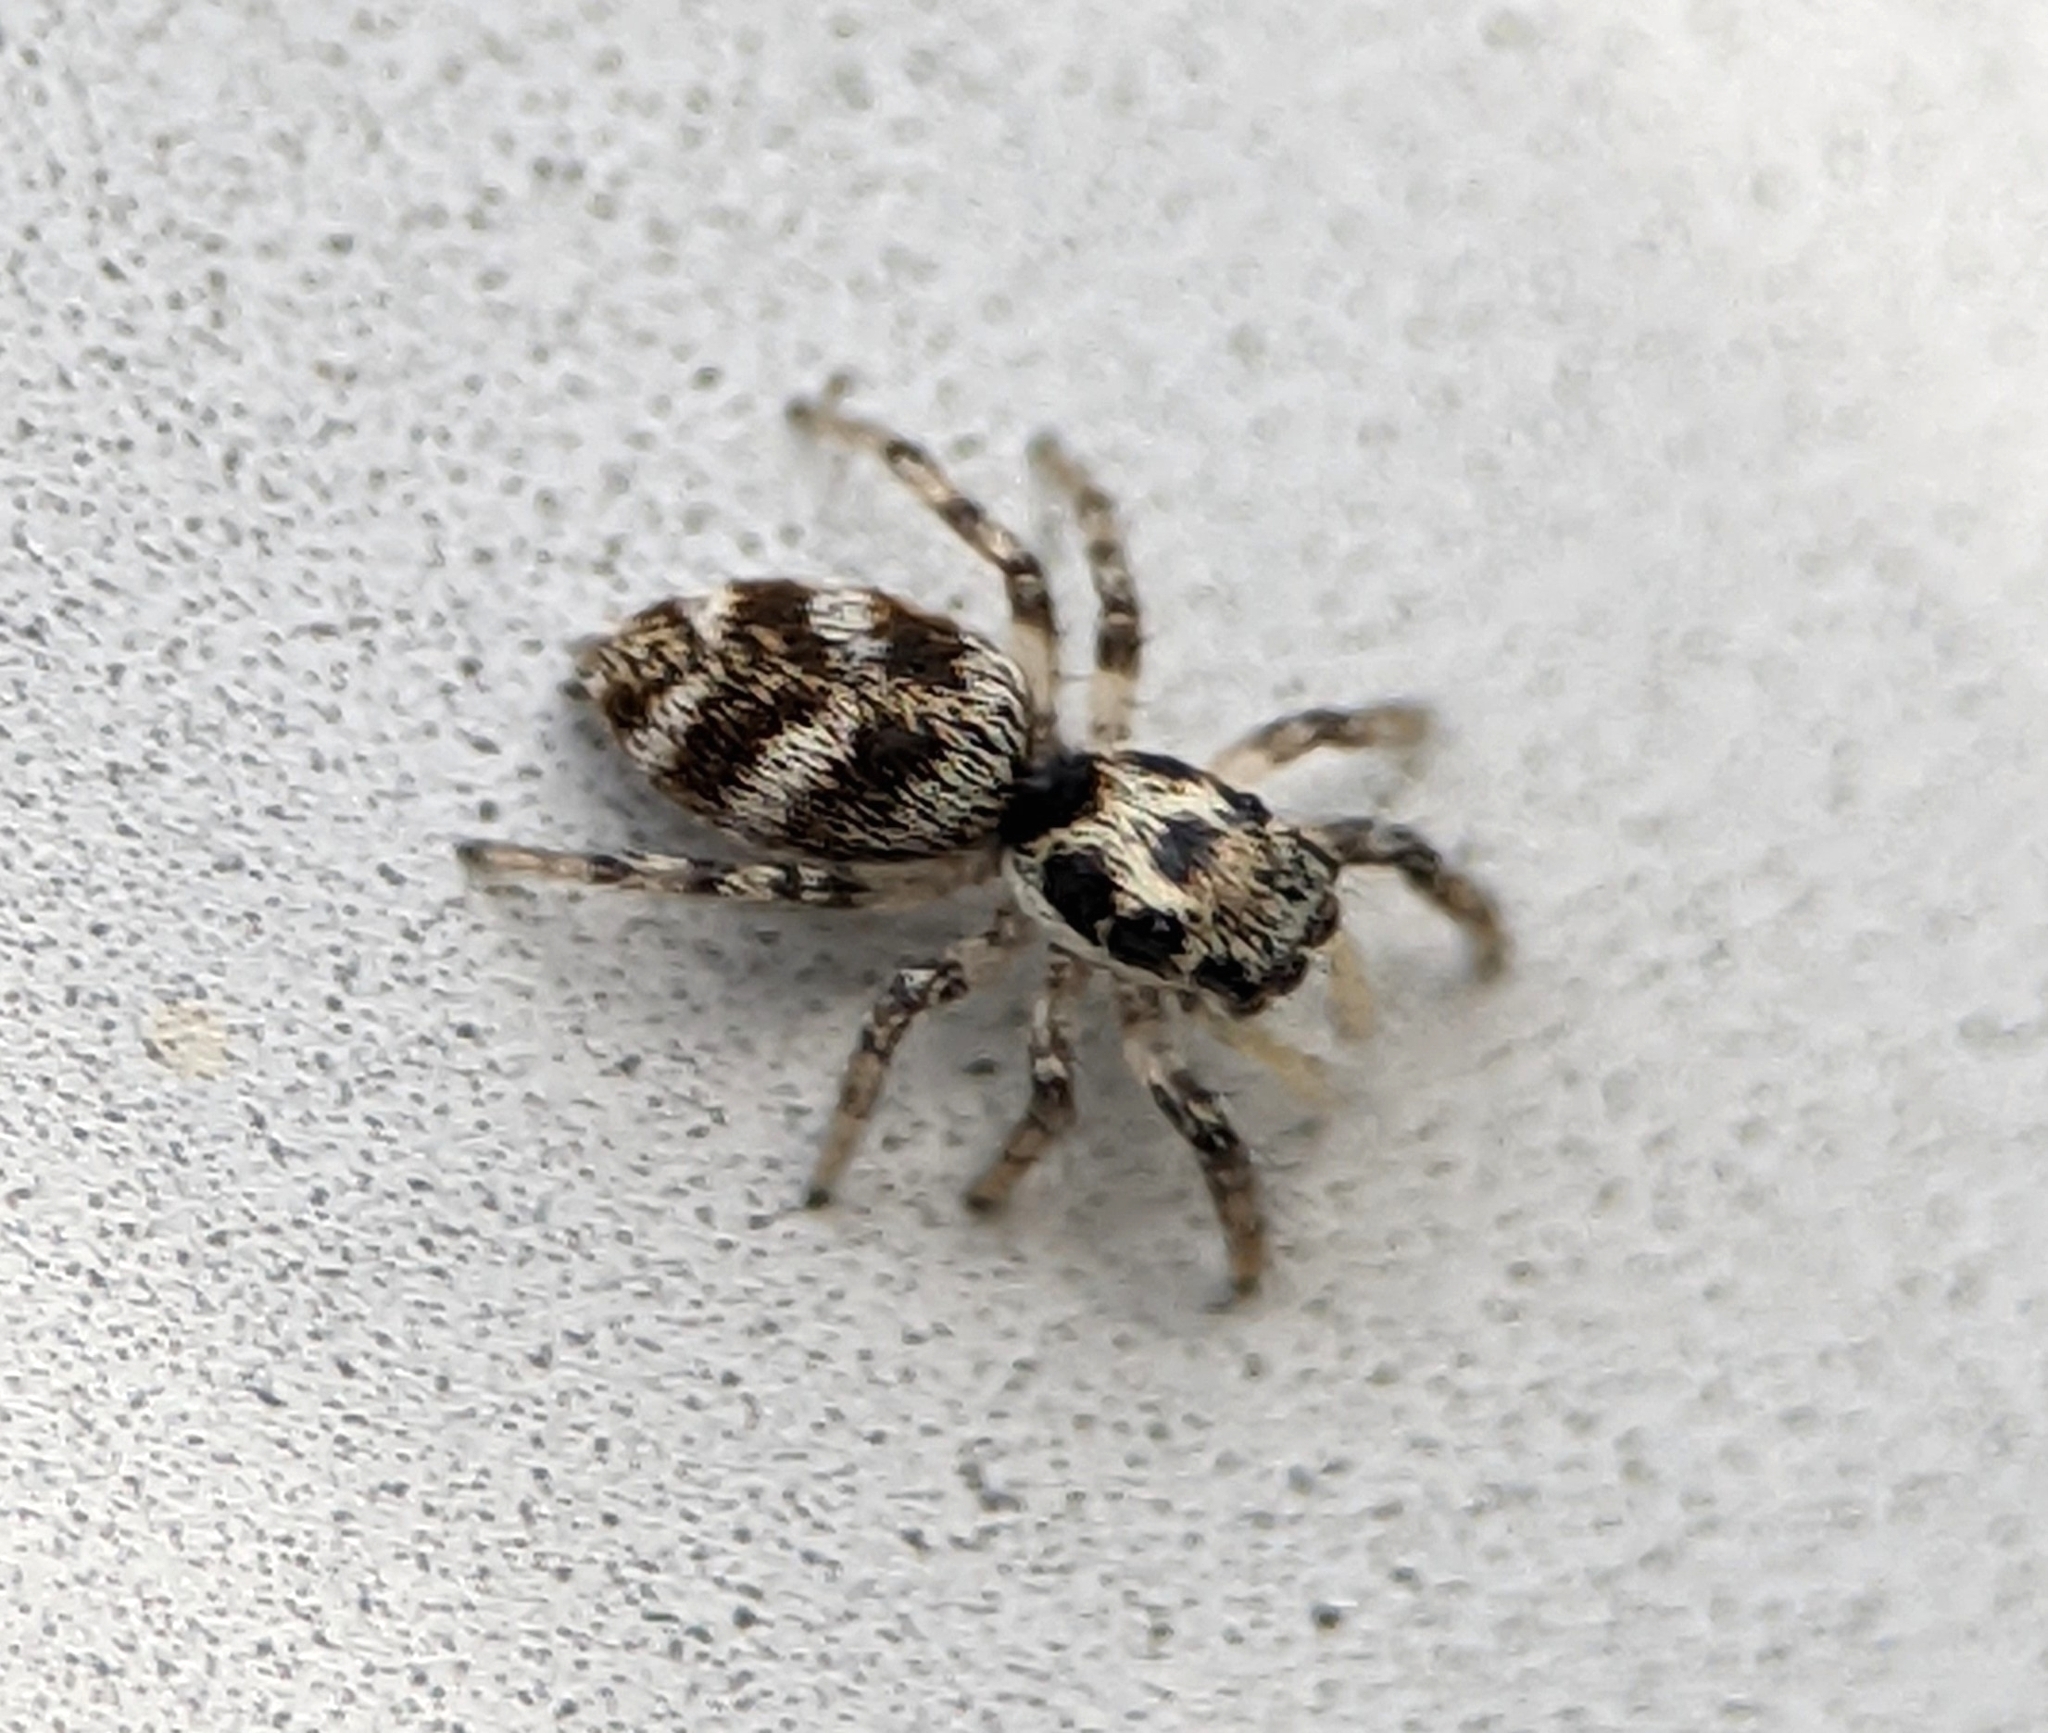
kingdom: Animalia
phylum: Arthropoda
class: Arachnida
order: Araneae
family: Salticidae
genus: Salticus
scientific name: Salticus scenicus
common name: Zebra jumper
